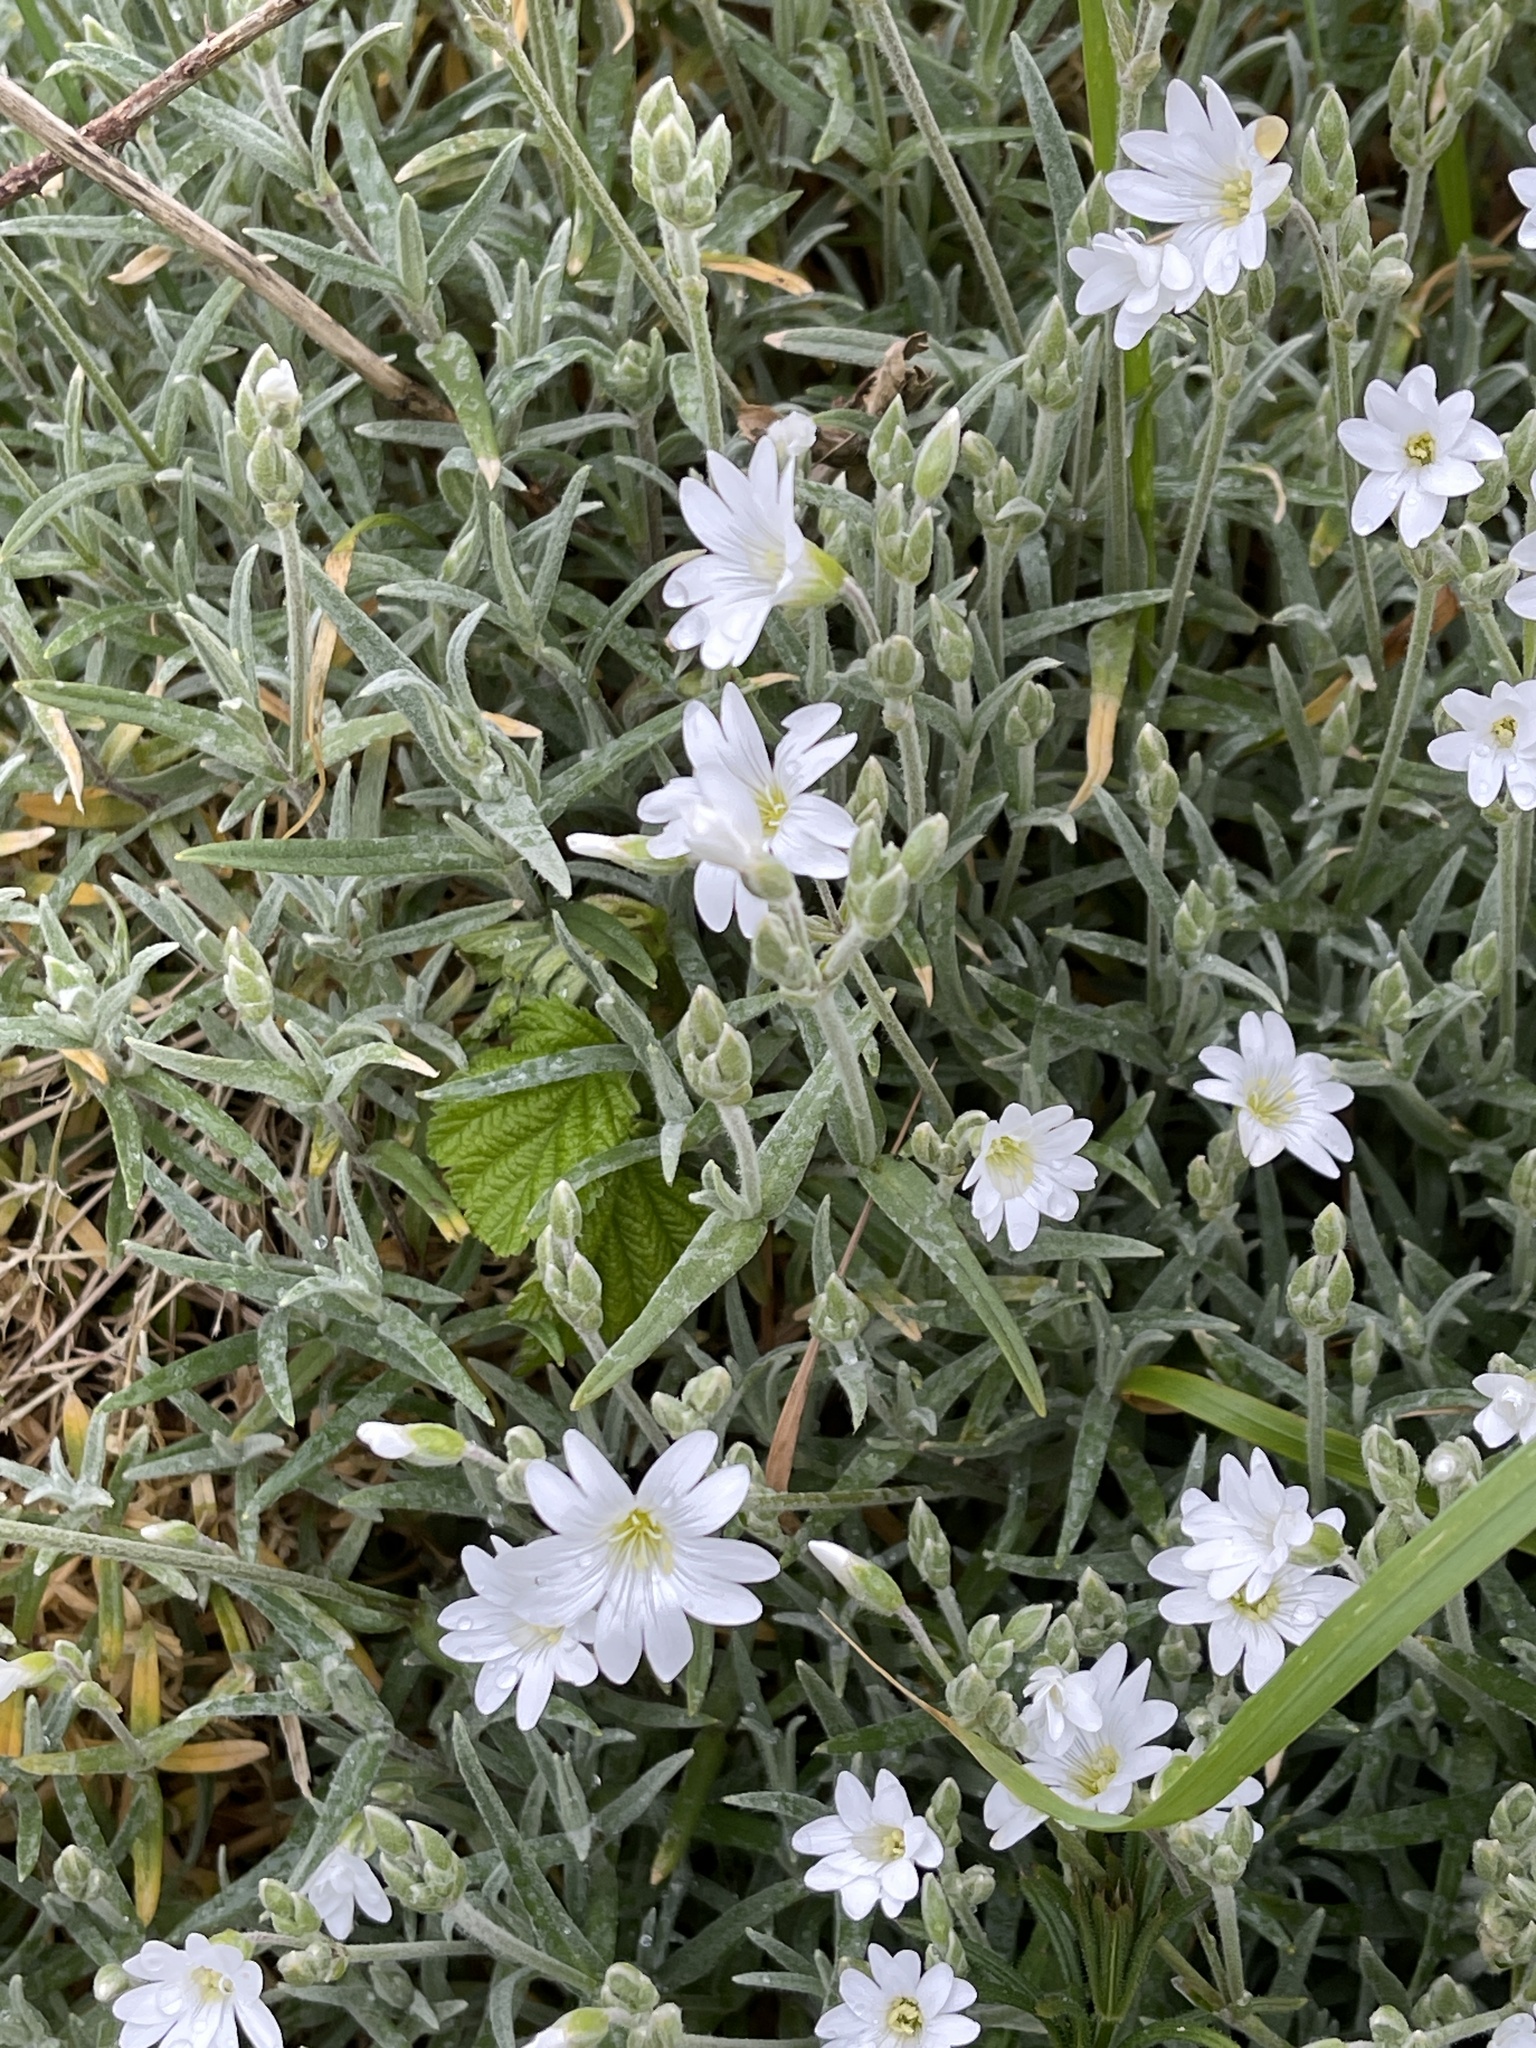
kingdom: Plantae
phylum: Tracheophyta
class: Magnoliopsida
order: Caryophyllales
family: Caryophyllaceae
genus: Cerastium
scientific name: Cerastium tomentosum
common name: Snow-in-summer
